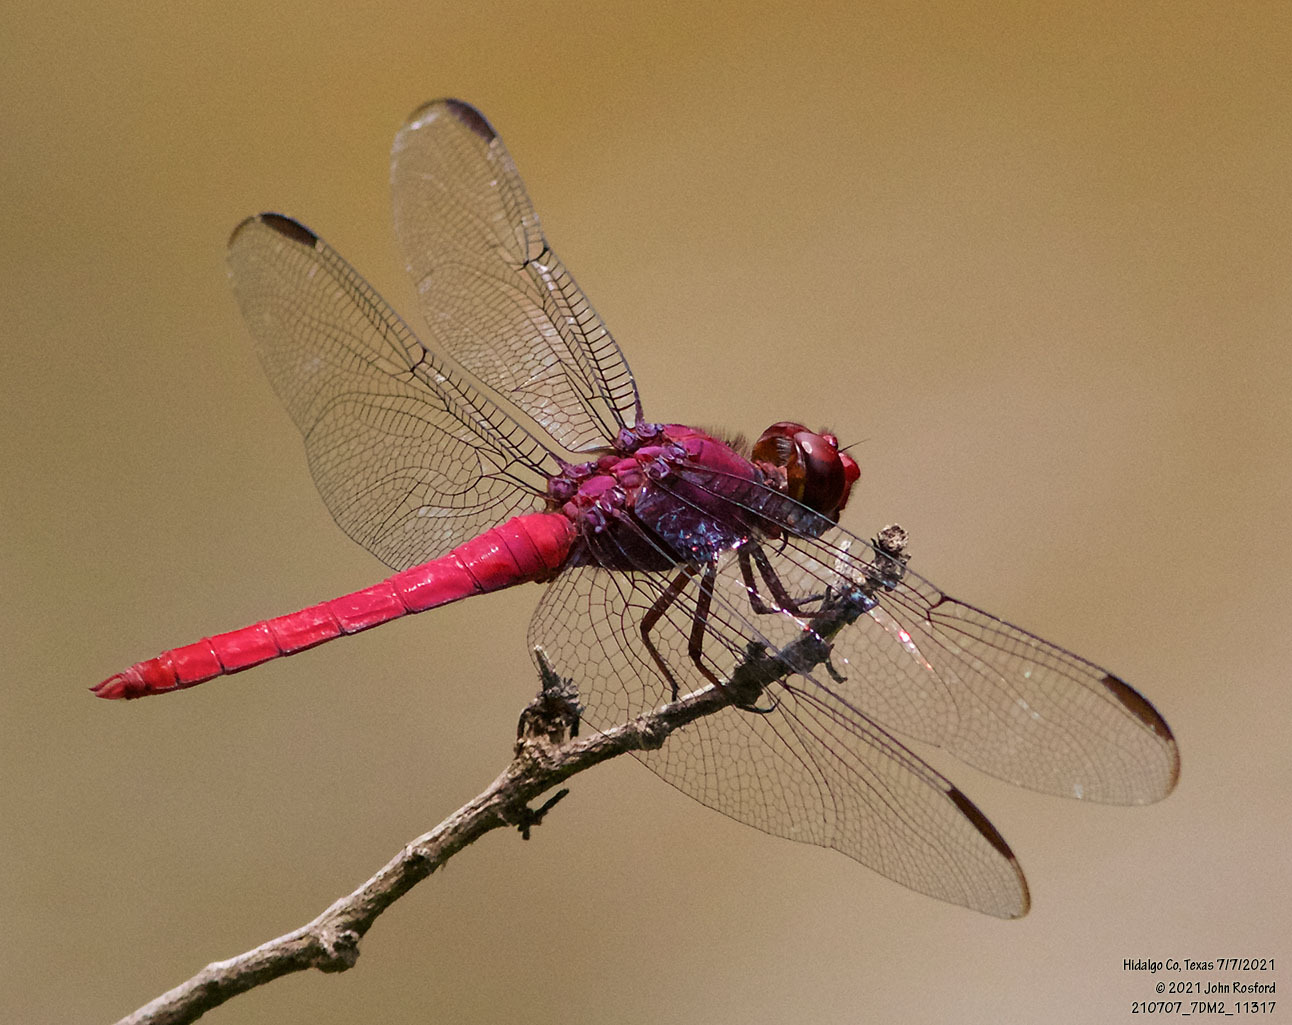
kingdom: Animalia
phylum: Arthropoda
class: Insecta
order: Odonata
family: Libellulidae
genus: Orthemis
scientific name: Orthemis discolor
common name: Carmine skimmer
